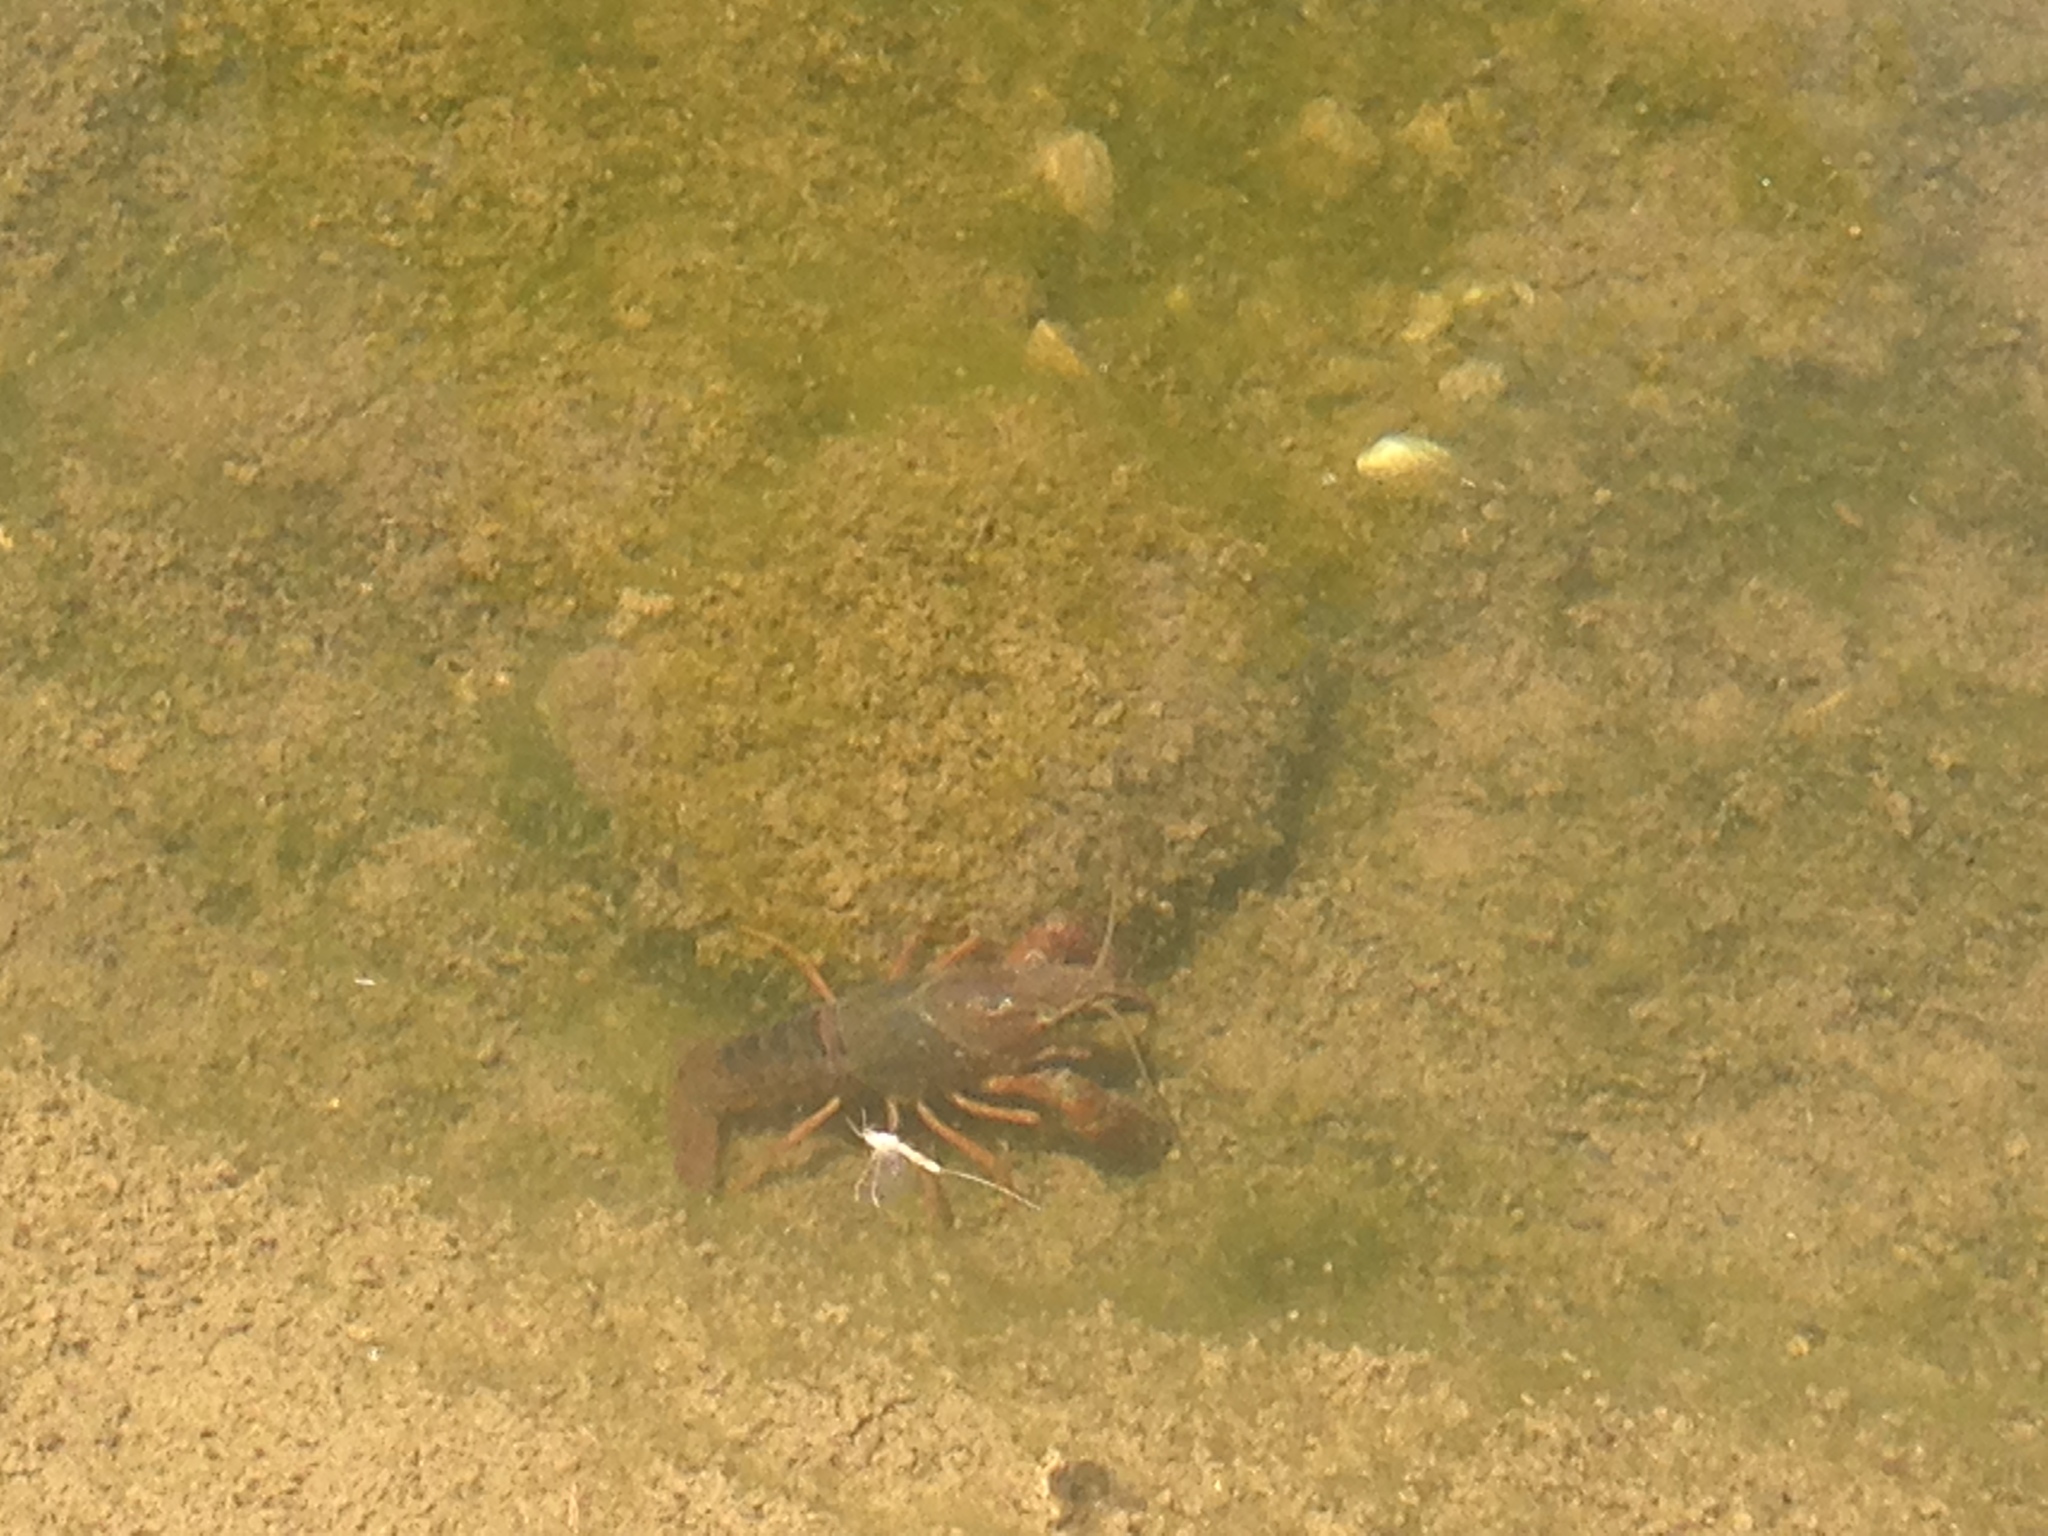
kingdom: Animalia
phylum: Arthropoda
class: Malacostraca
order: Decapoda
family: Cambaridae
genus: Procambarus
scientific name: Procambarus clarkii
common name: Red swamp crayfish
